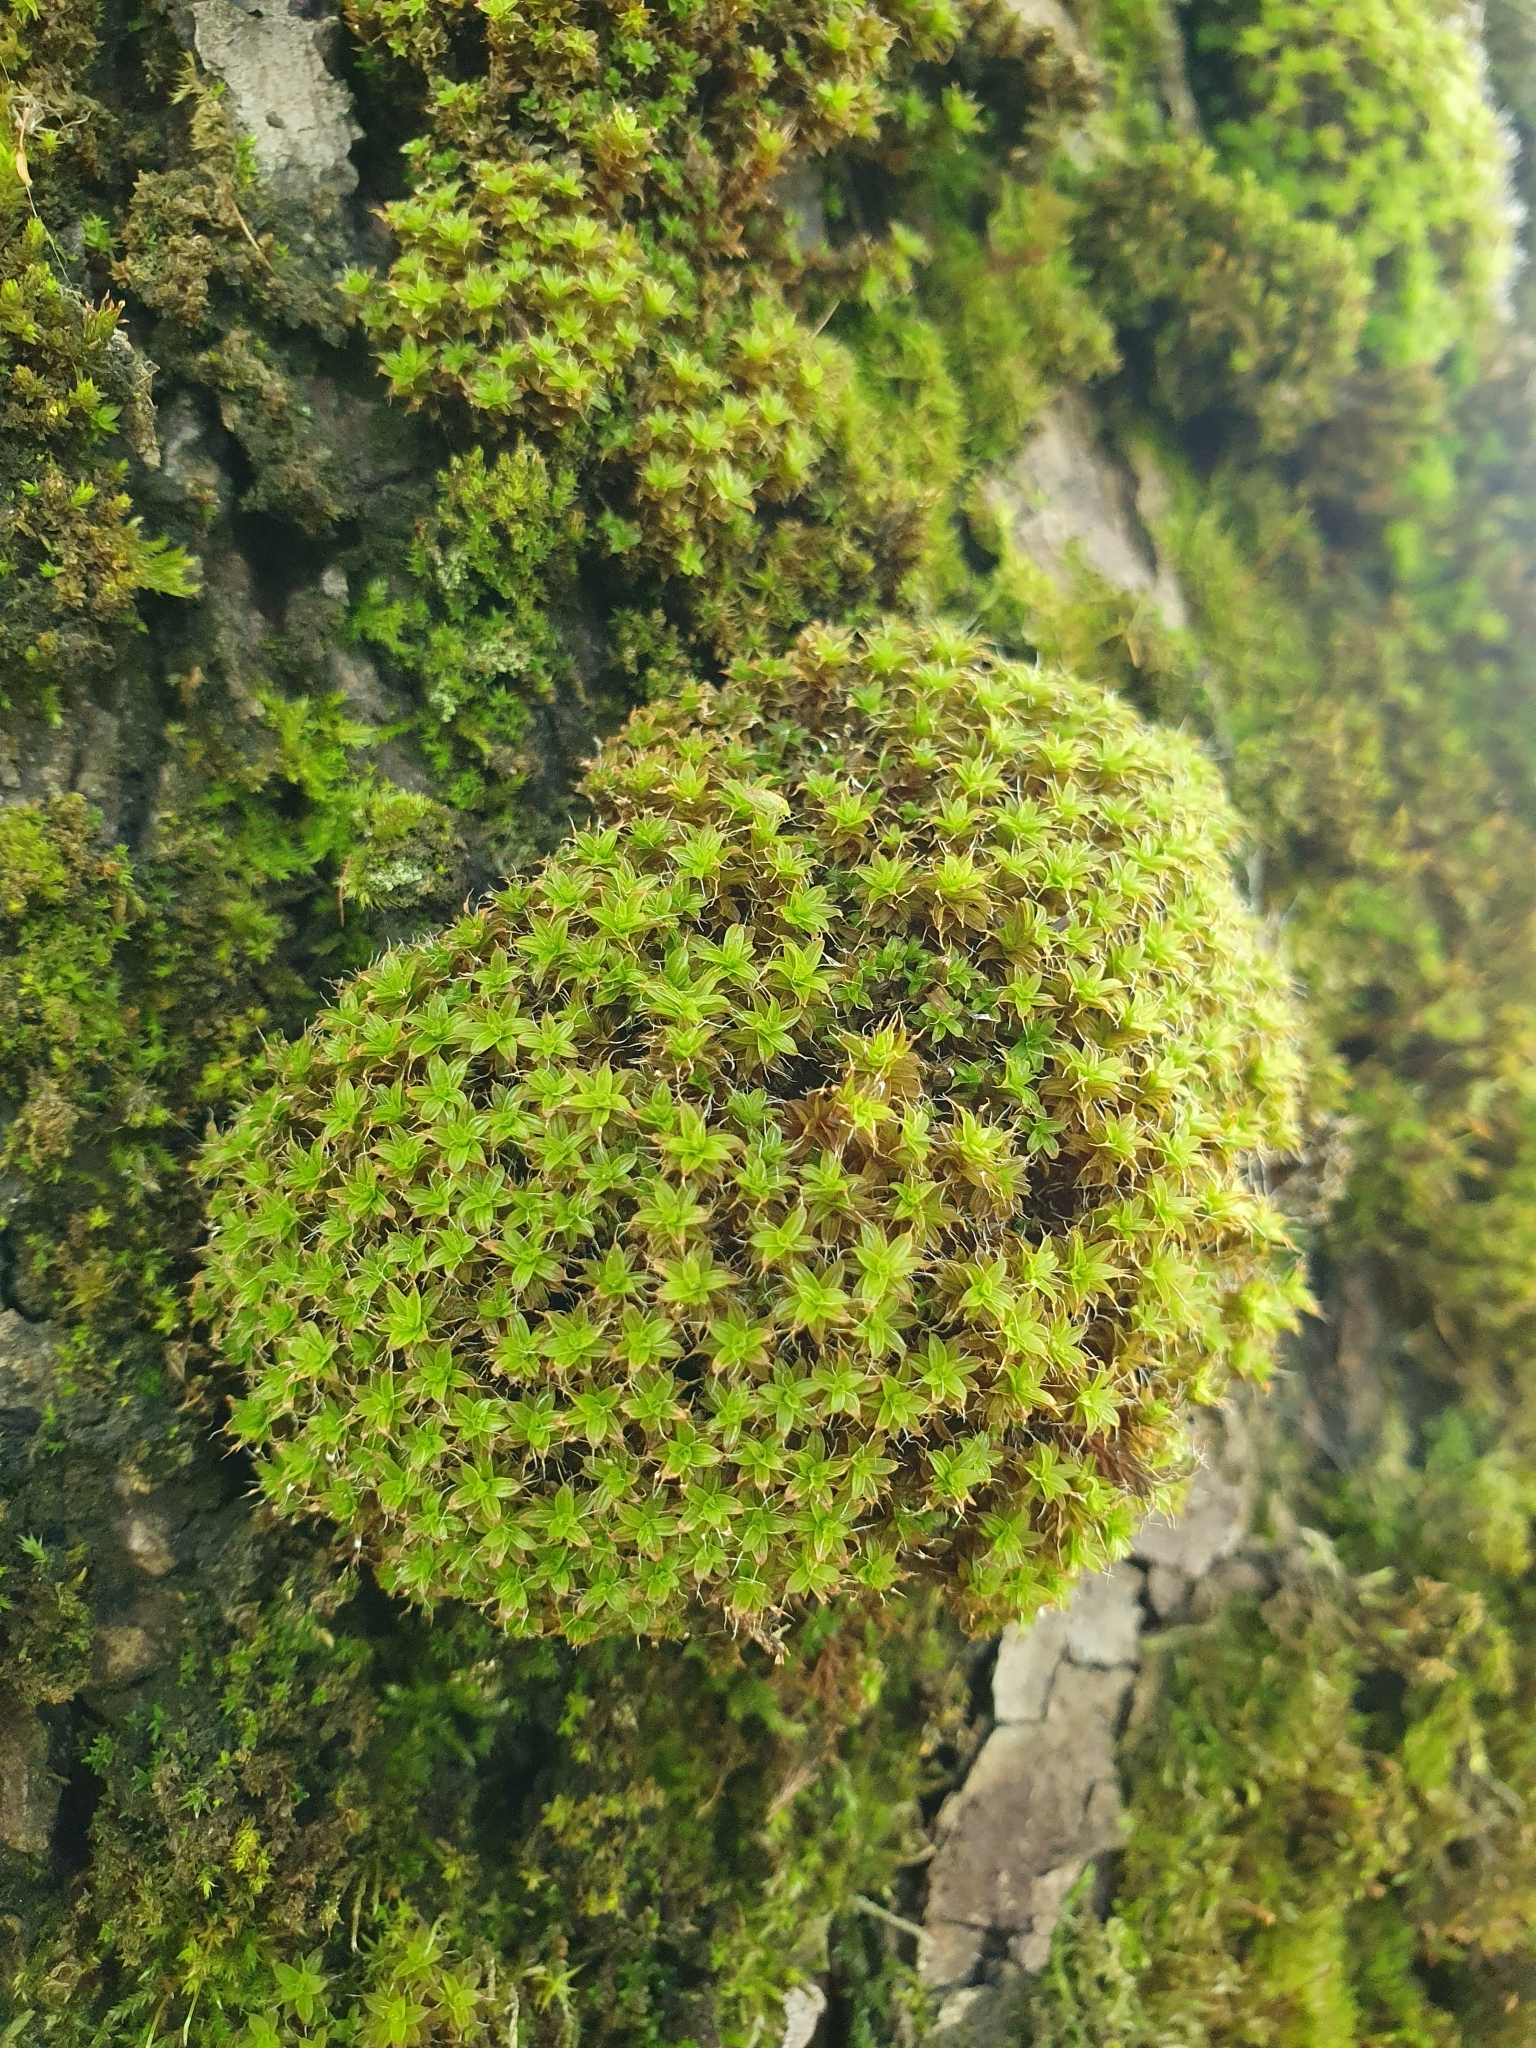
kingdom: Plantae
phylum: Bryophyta
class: Bryopsida
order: Pottiales
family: Pottiaceae
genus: Syntrichia
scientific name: Syntrichia ruralis
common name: Sidewalk screw moss
